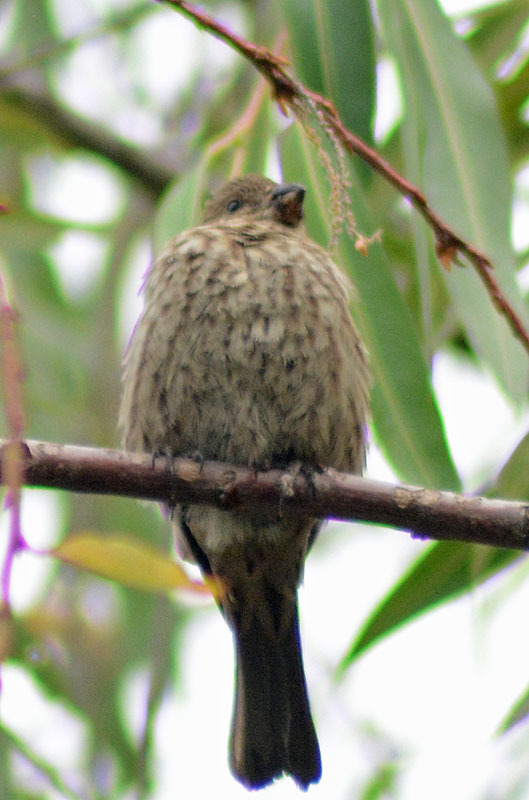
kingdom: Animalia
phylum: Chordata
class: Aves
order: Passeriformes
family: Fringillidae
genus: Haemorhous
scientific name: Haemorhous mexicanus
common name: House finch
